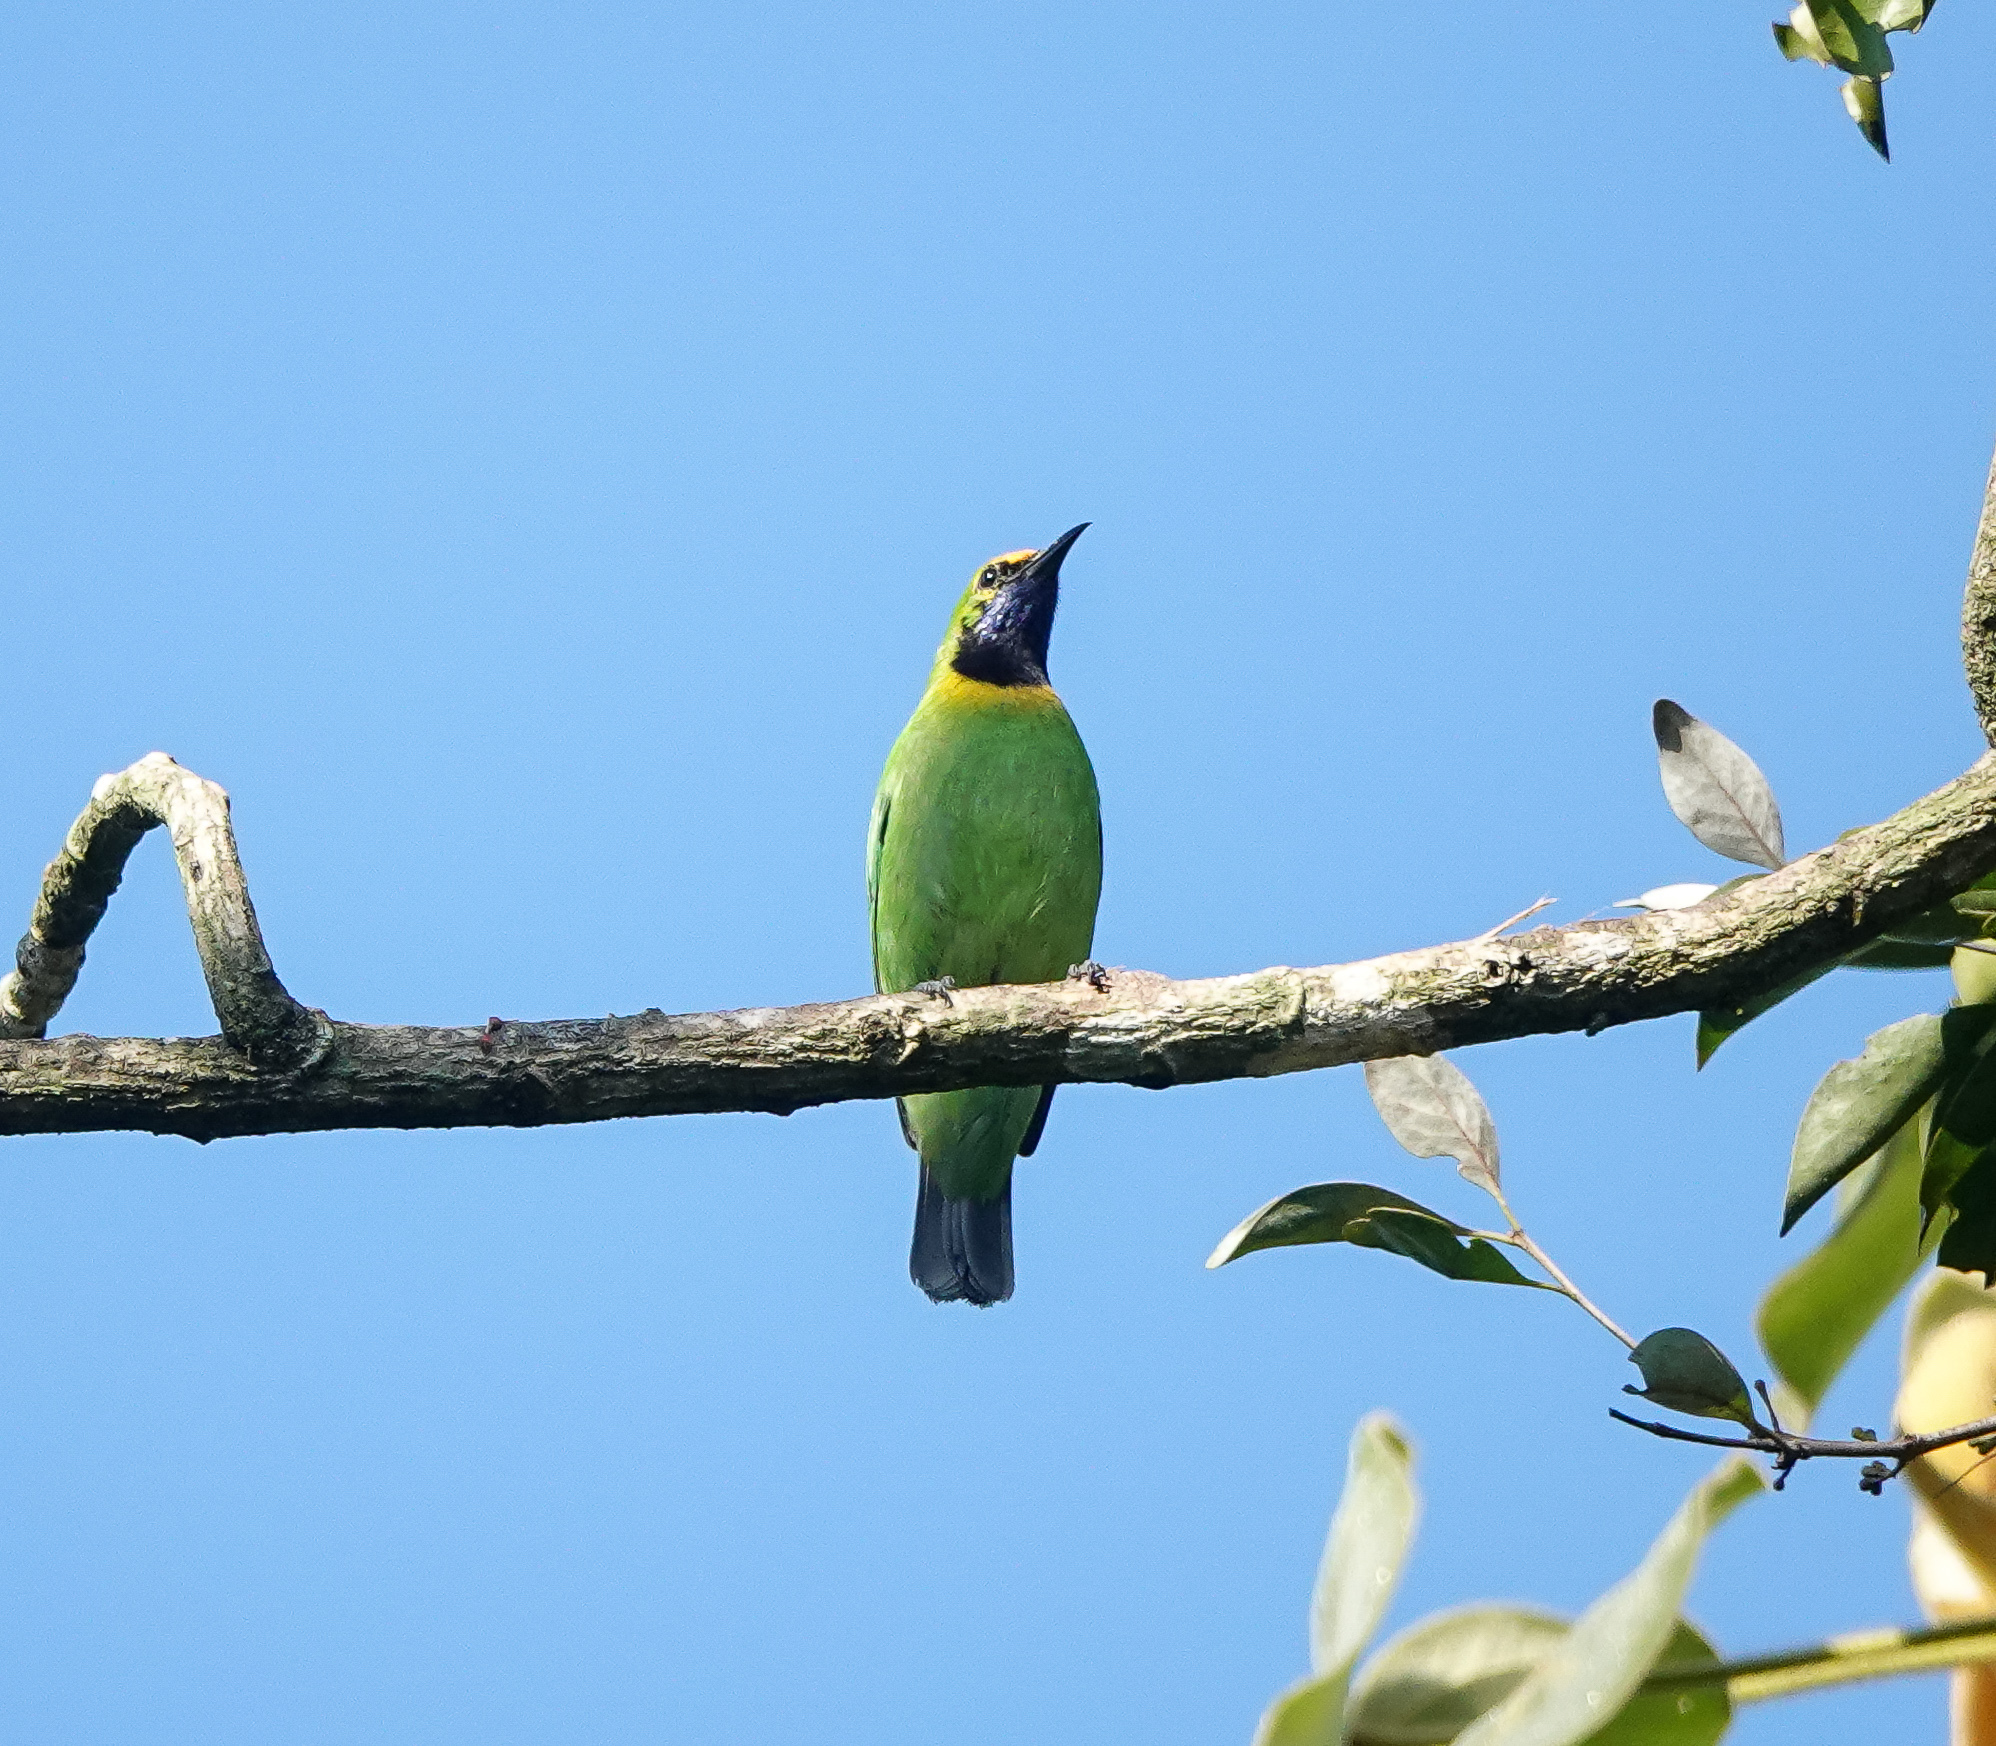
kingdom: Animalia
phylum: Chordata
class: Aves
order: Passeriformes
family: Chloropseidae
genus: Chloropsis
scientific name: Chloropsis aurifrons
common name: Golden-fronted leafbird
